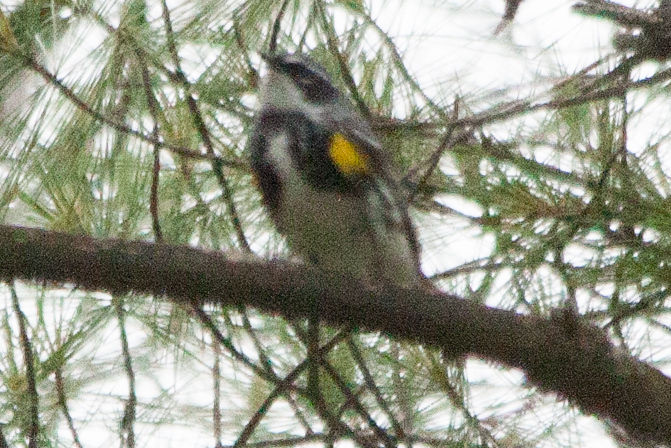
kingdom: Animalia
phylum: Chordata
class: Aves
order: Passeriformes
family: Parulidae
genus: Setophaga
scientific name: Setophaga coronata
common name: Myrtle warbler
